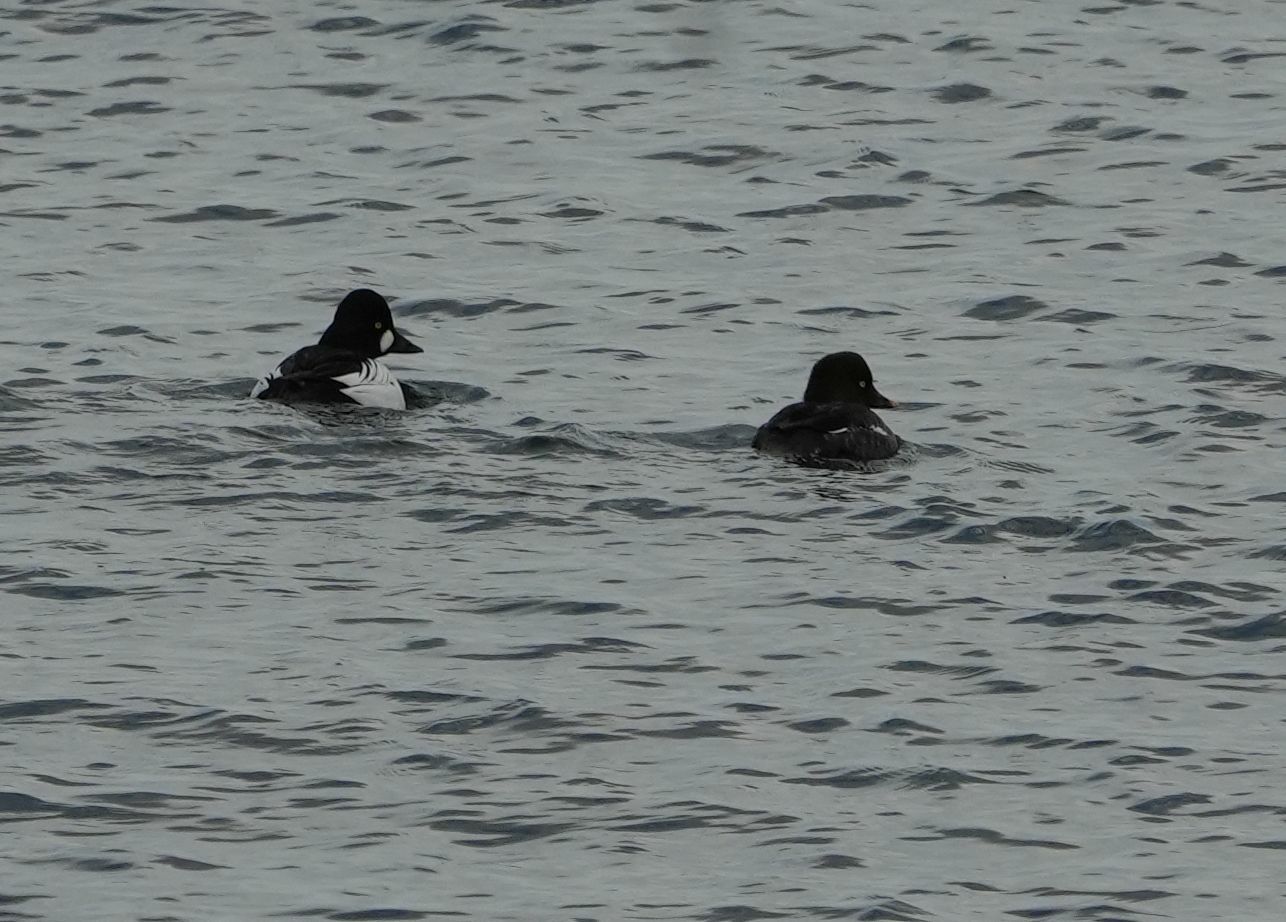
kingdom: Animalia
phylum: Chordata
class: Aves
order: Anseriformes
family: Anatidae
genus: Bucephala
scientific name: Bucephala clangula
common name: Common goldeneye
